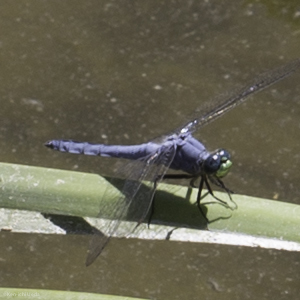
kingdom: Animalia
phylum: Arthropoda
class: Insecta
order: Odonata
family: Libellulidae
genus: Erythemis
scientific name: Erythemis collocata
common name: Western pondhawk
